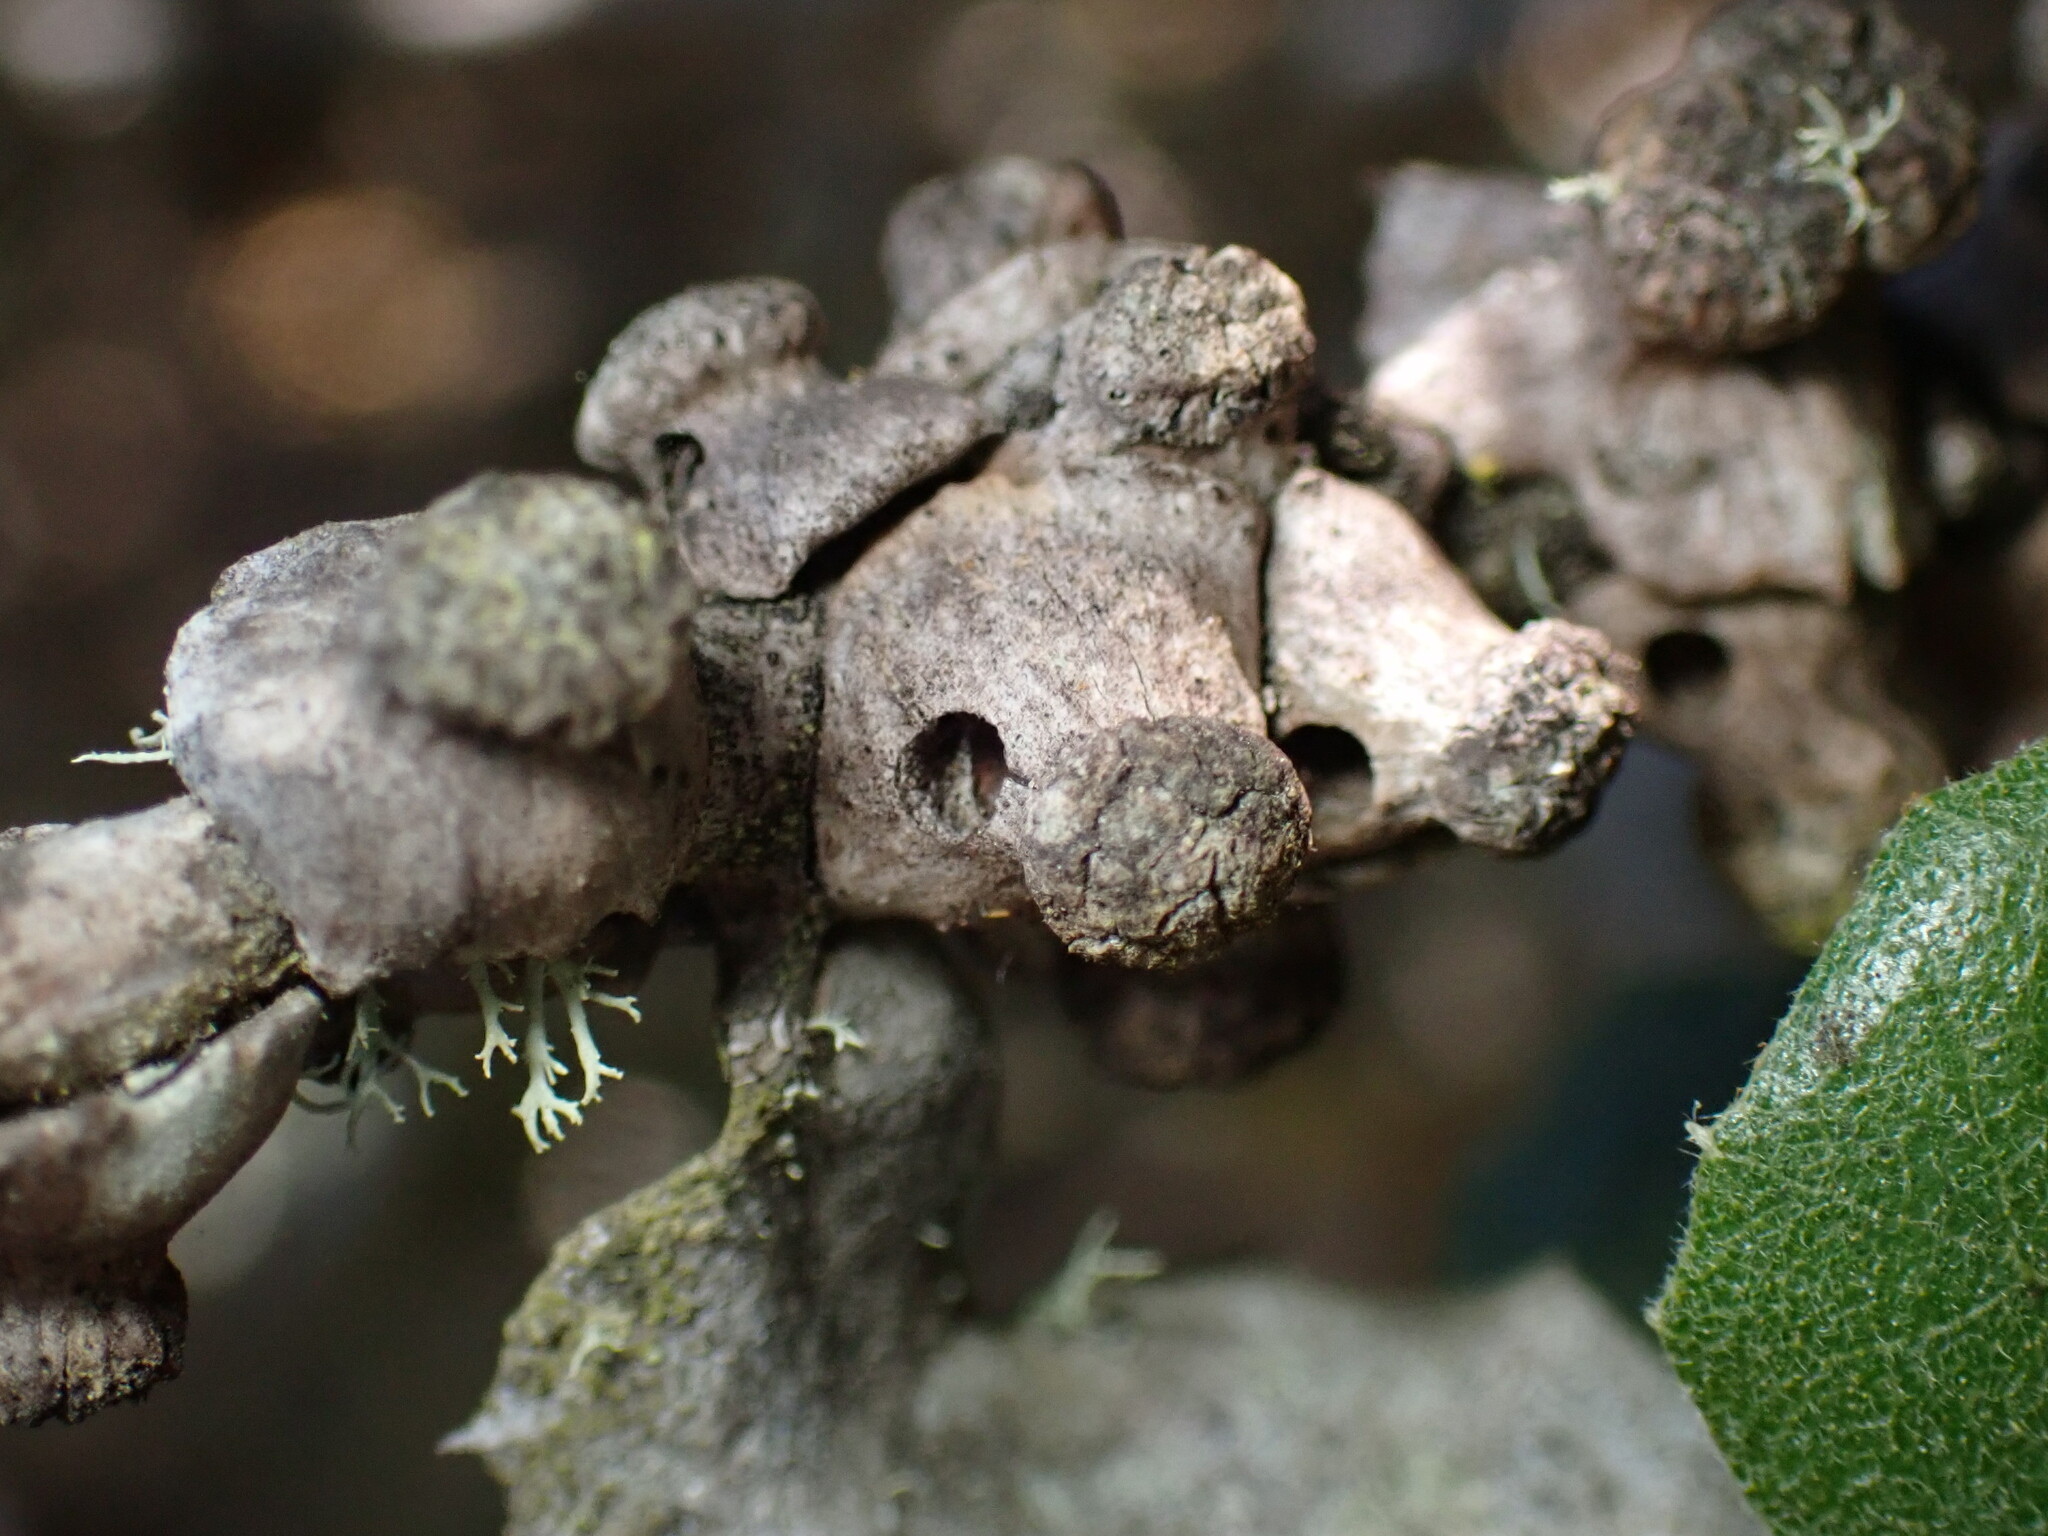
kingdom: Animalia
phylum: Arthropoda
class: Insecta
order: Hymenoptera
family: Cynipidae
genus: Disholcaspis
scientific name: Disholcaspis prehensa
